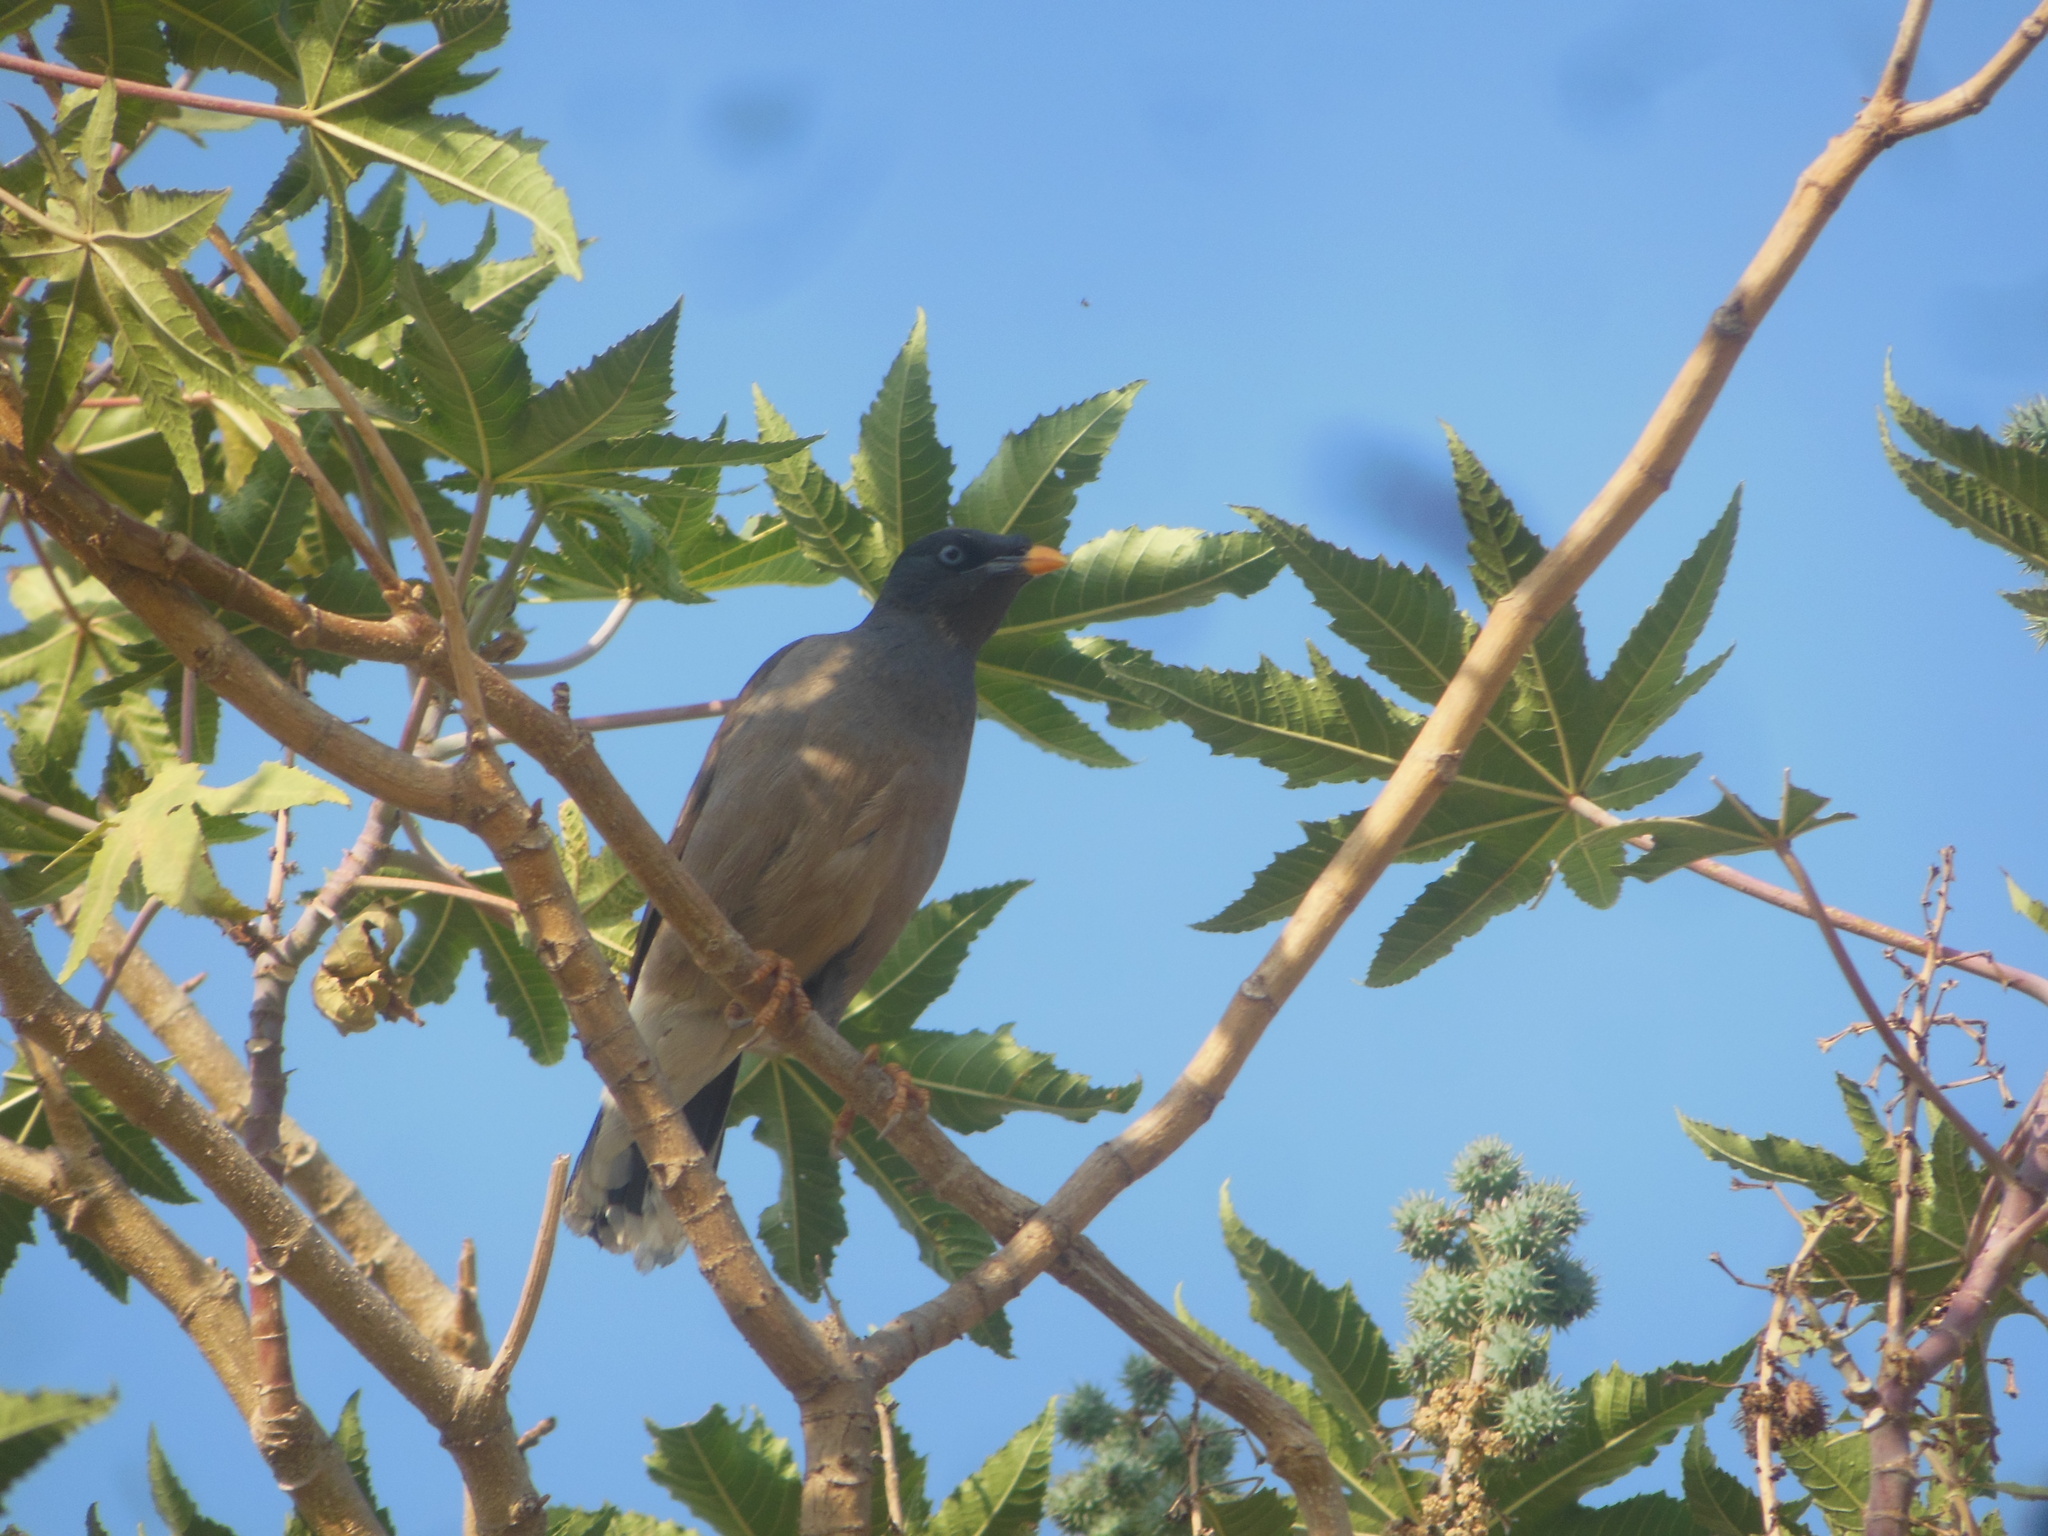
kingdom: Animalia
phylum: Chordata
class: Aves
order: Passeriformes
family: Sturnidae
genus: Acridotheres
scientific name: Acridotheres fuscus
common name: Jungle myna
